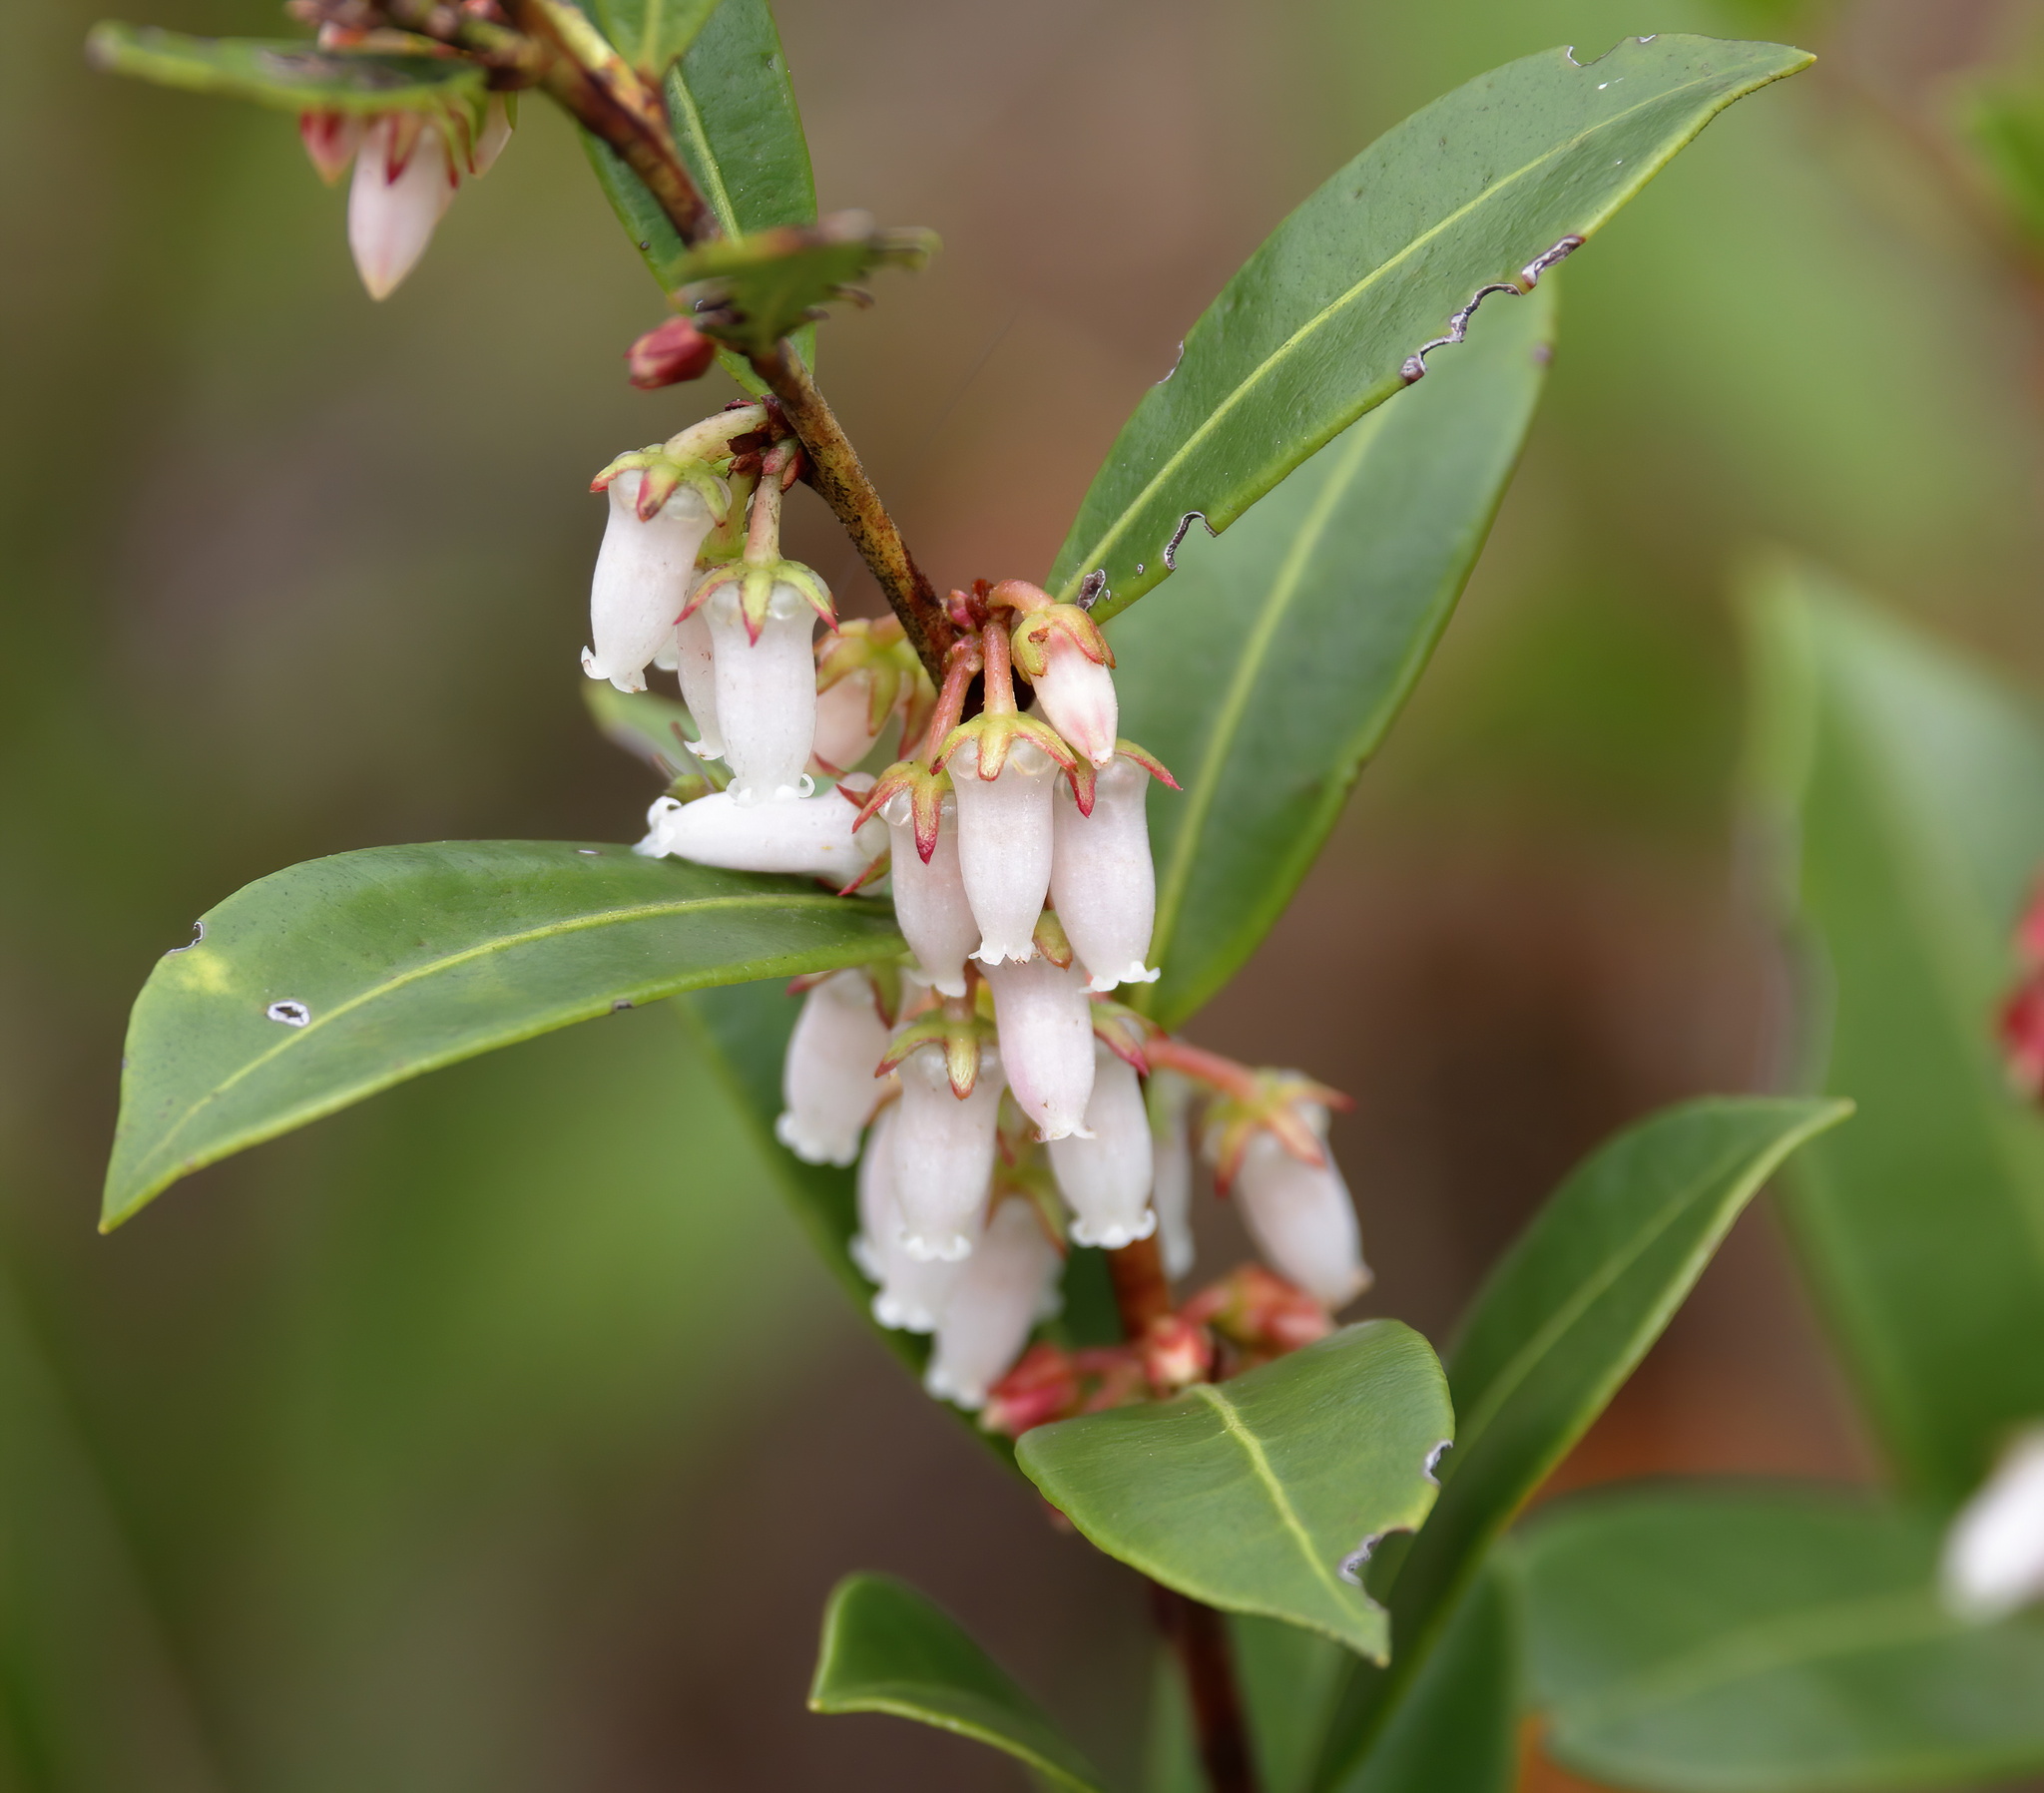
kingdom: Plantae
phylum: Tracheophyta
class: Magnoliopsida
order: Ericales
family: Ericaceae
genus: Lyonia
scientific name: Lyonia lucida
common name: Fetterbush
